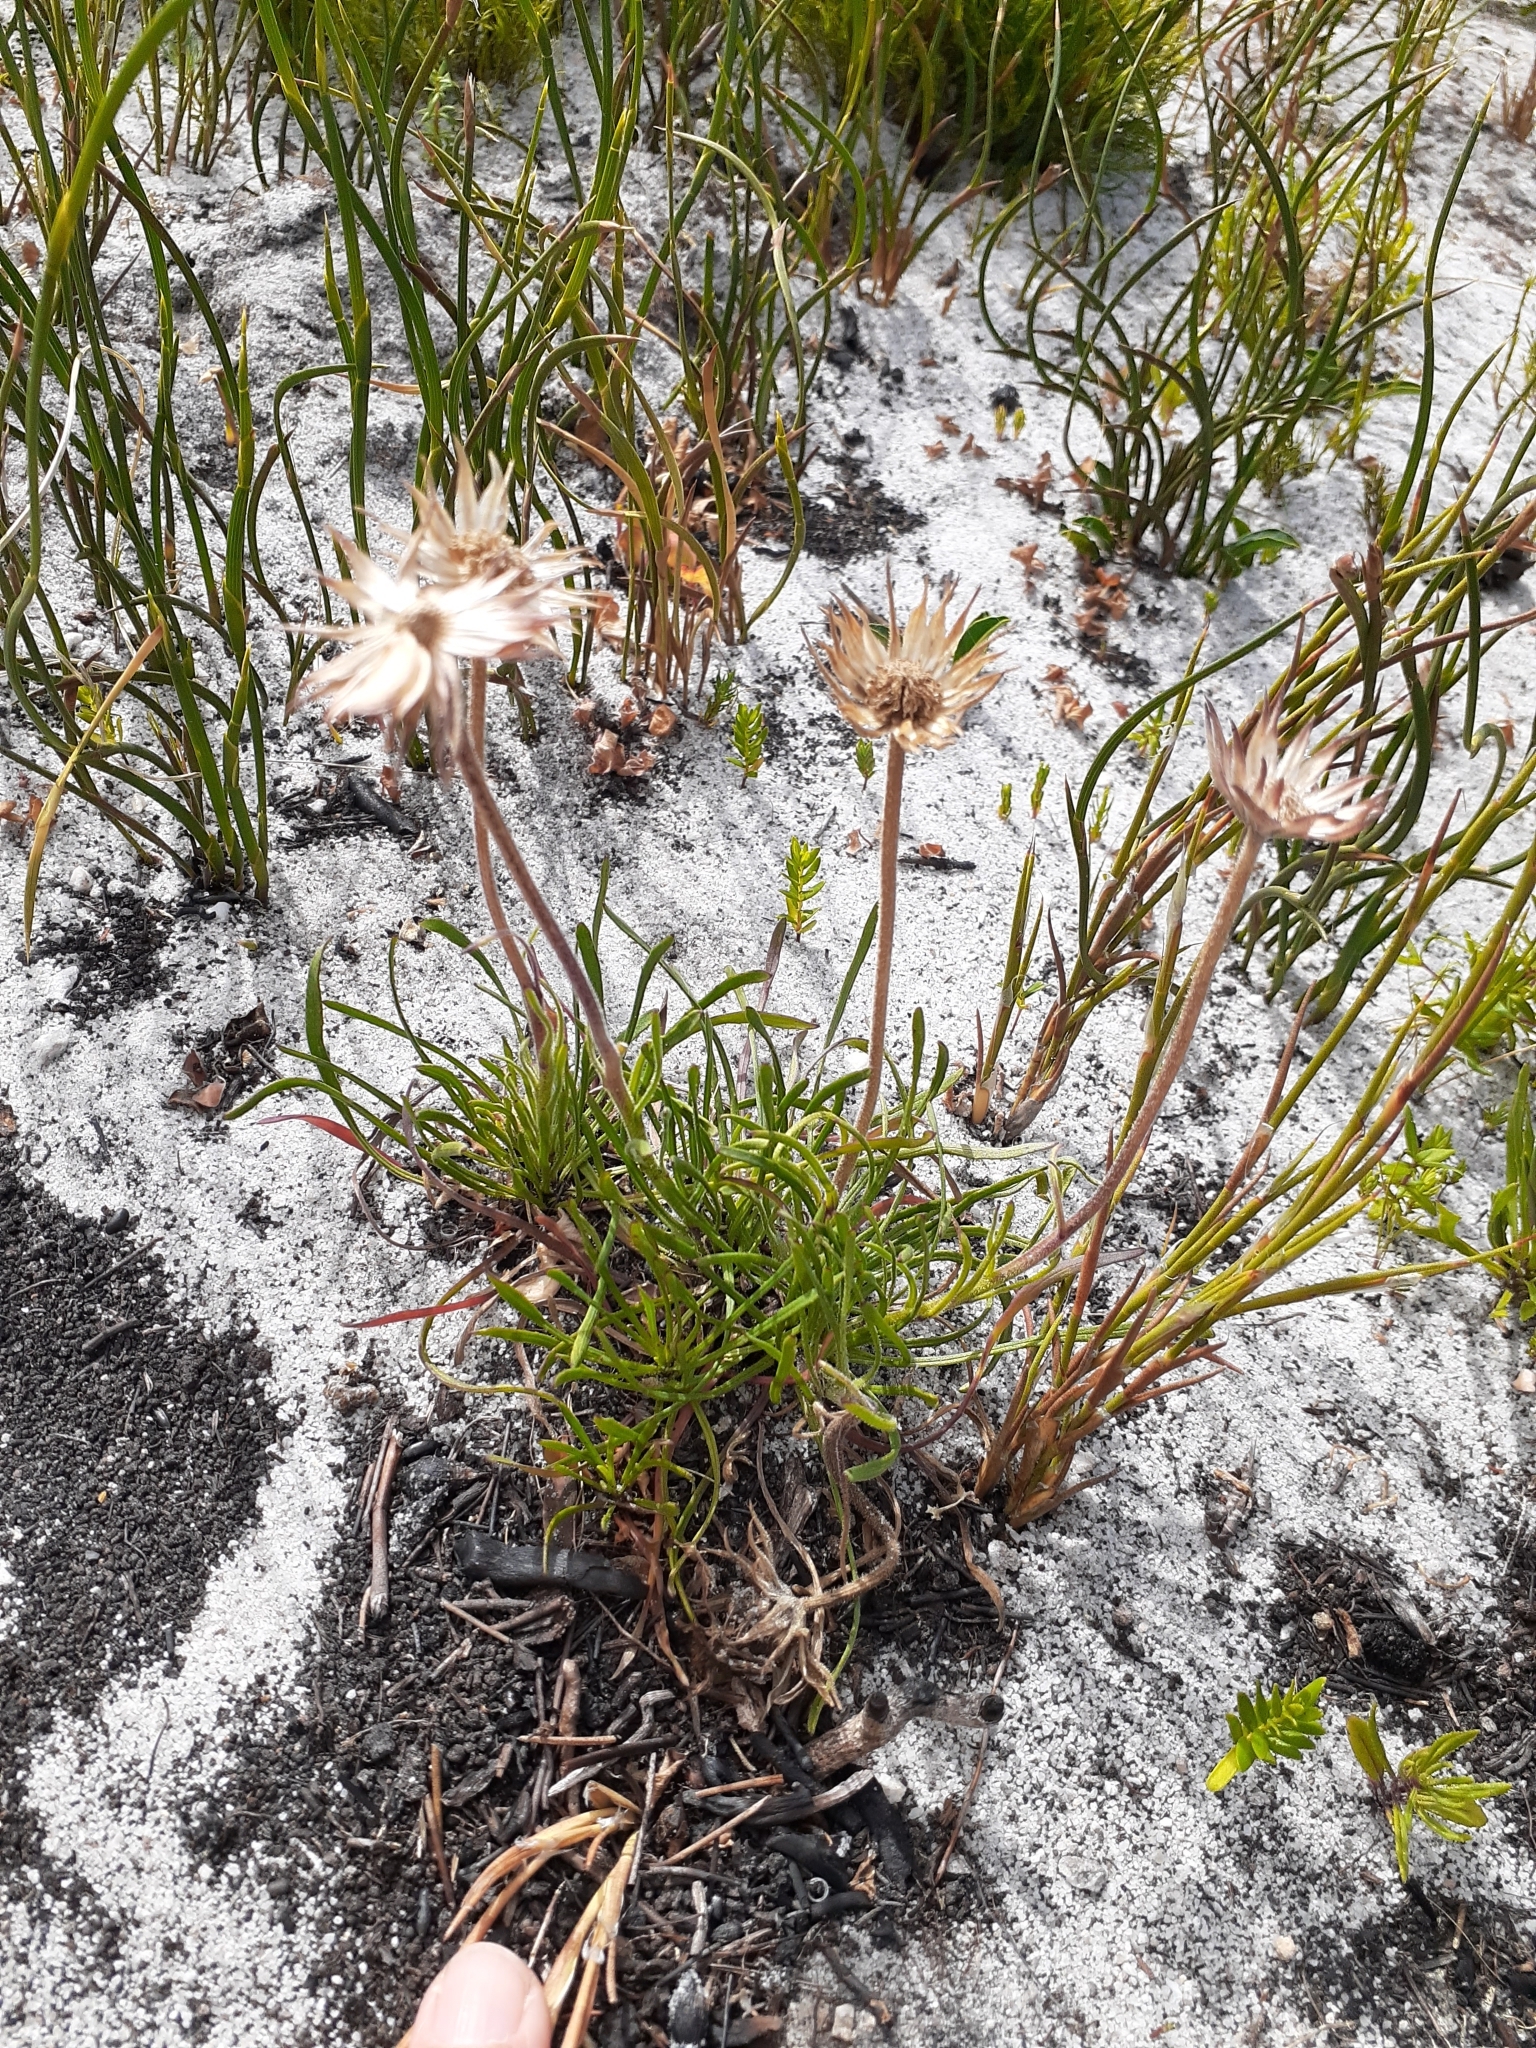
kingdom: Plantae
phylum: Tracheophyta
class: Magnoliopsida
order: Asterales
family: Asteraceae
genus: Dimorphotheca
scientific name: Dimorphotheca nudicaulis
